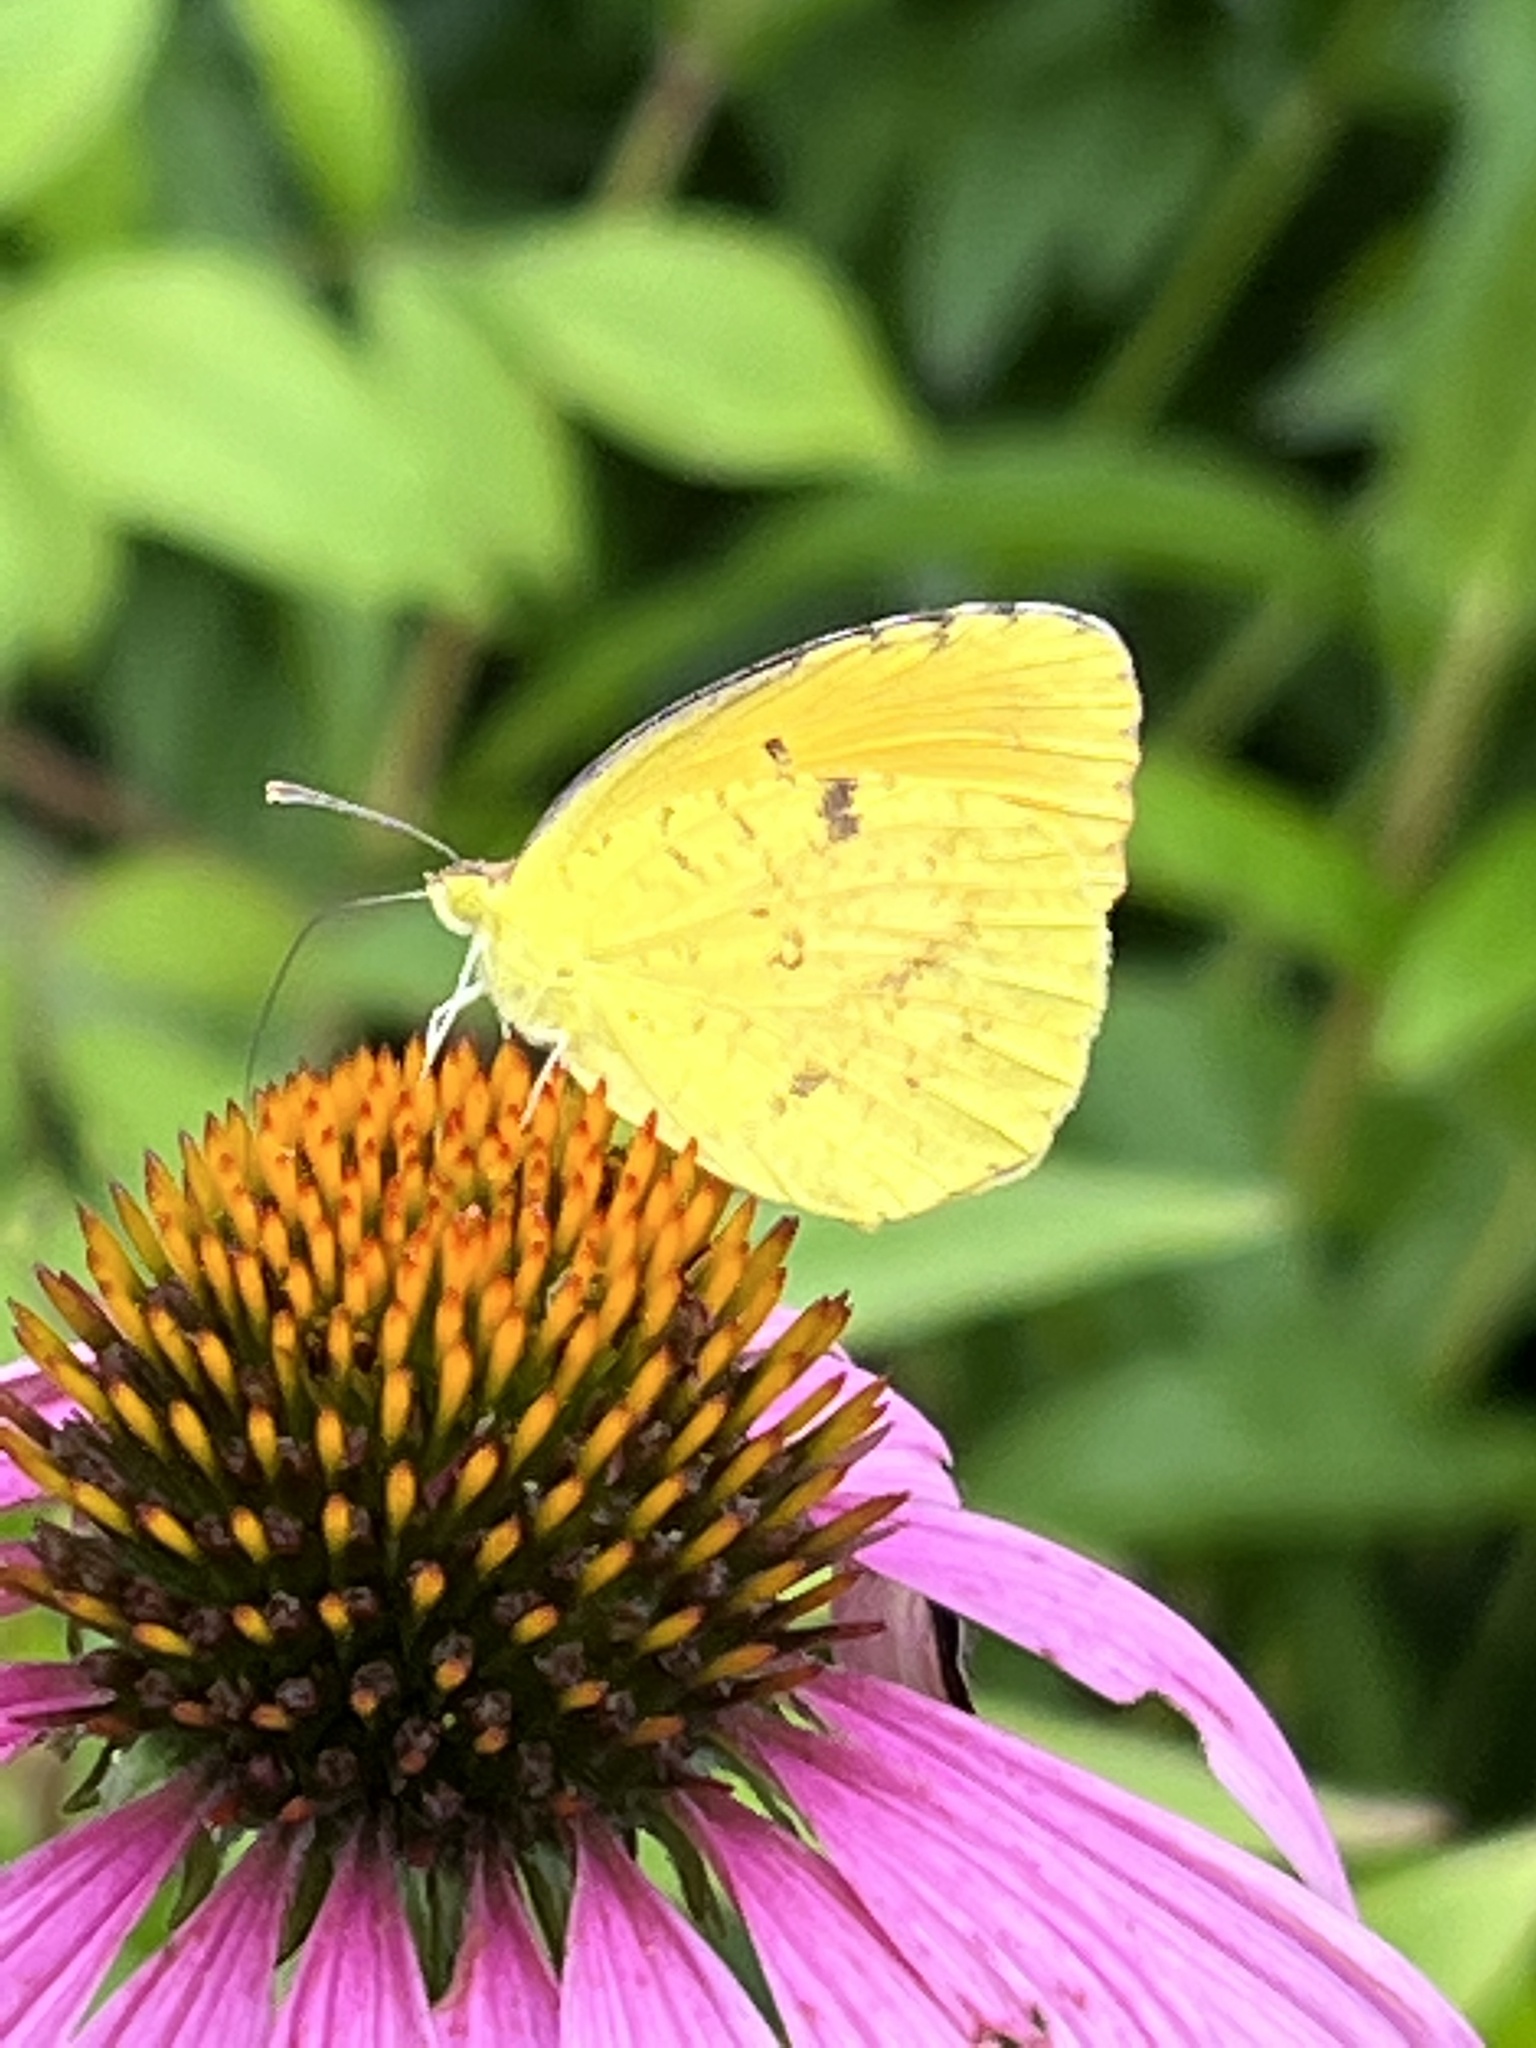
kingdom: Animalia
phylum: Arthropoda
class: Insecta
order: Lepidoptera
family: Pieridae
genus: Abaeis
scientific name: Abaeis nicippe
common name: Sleepy orange
